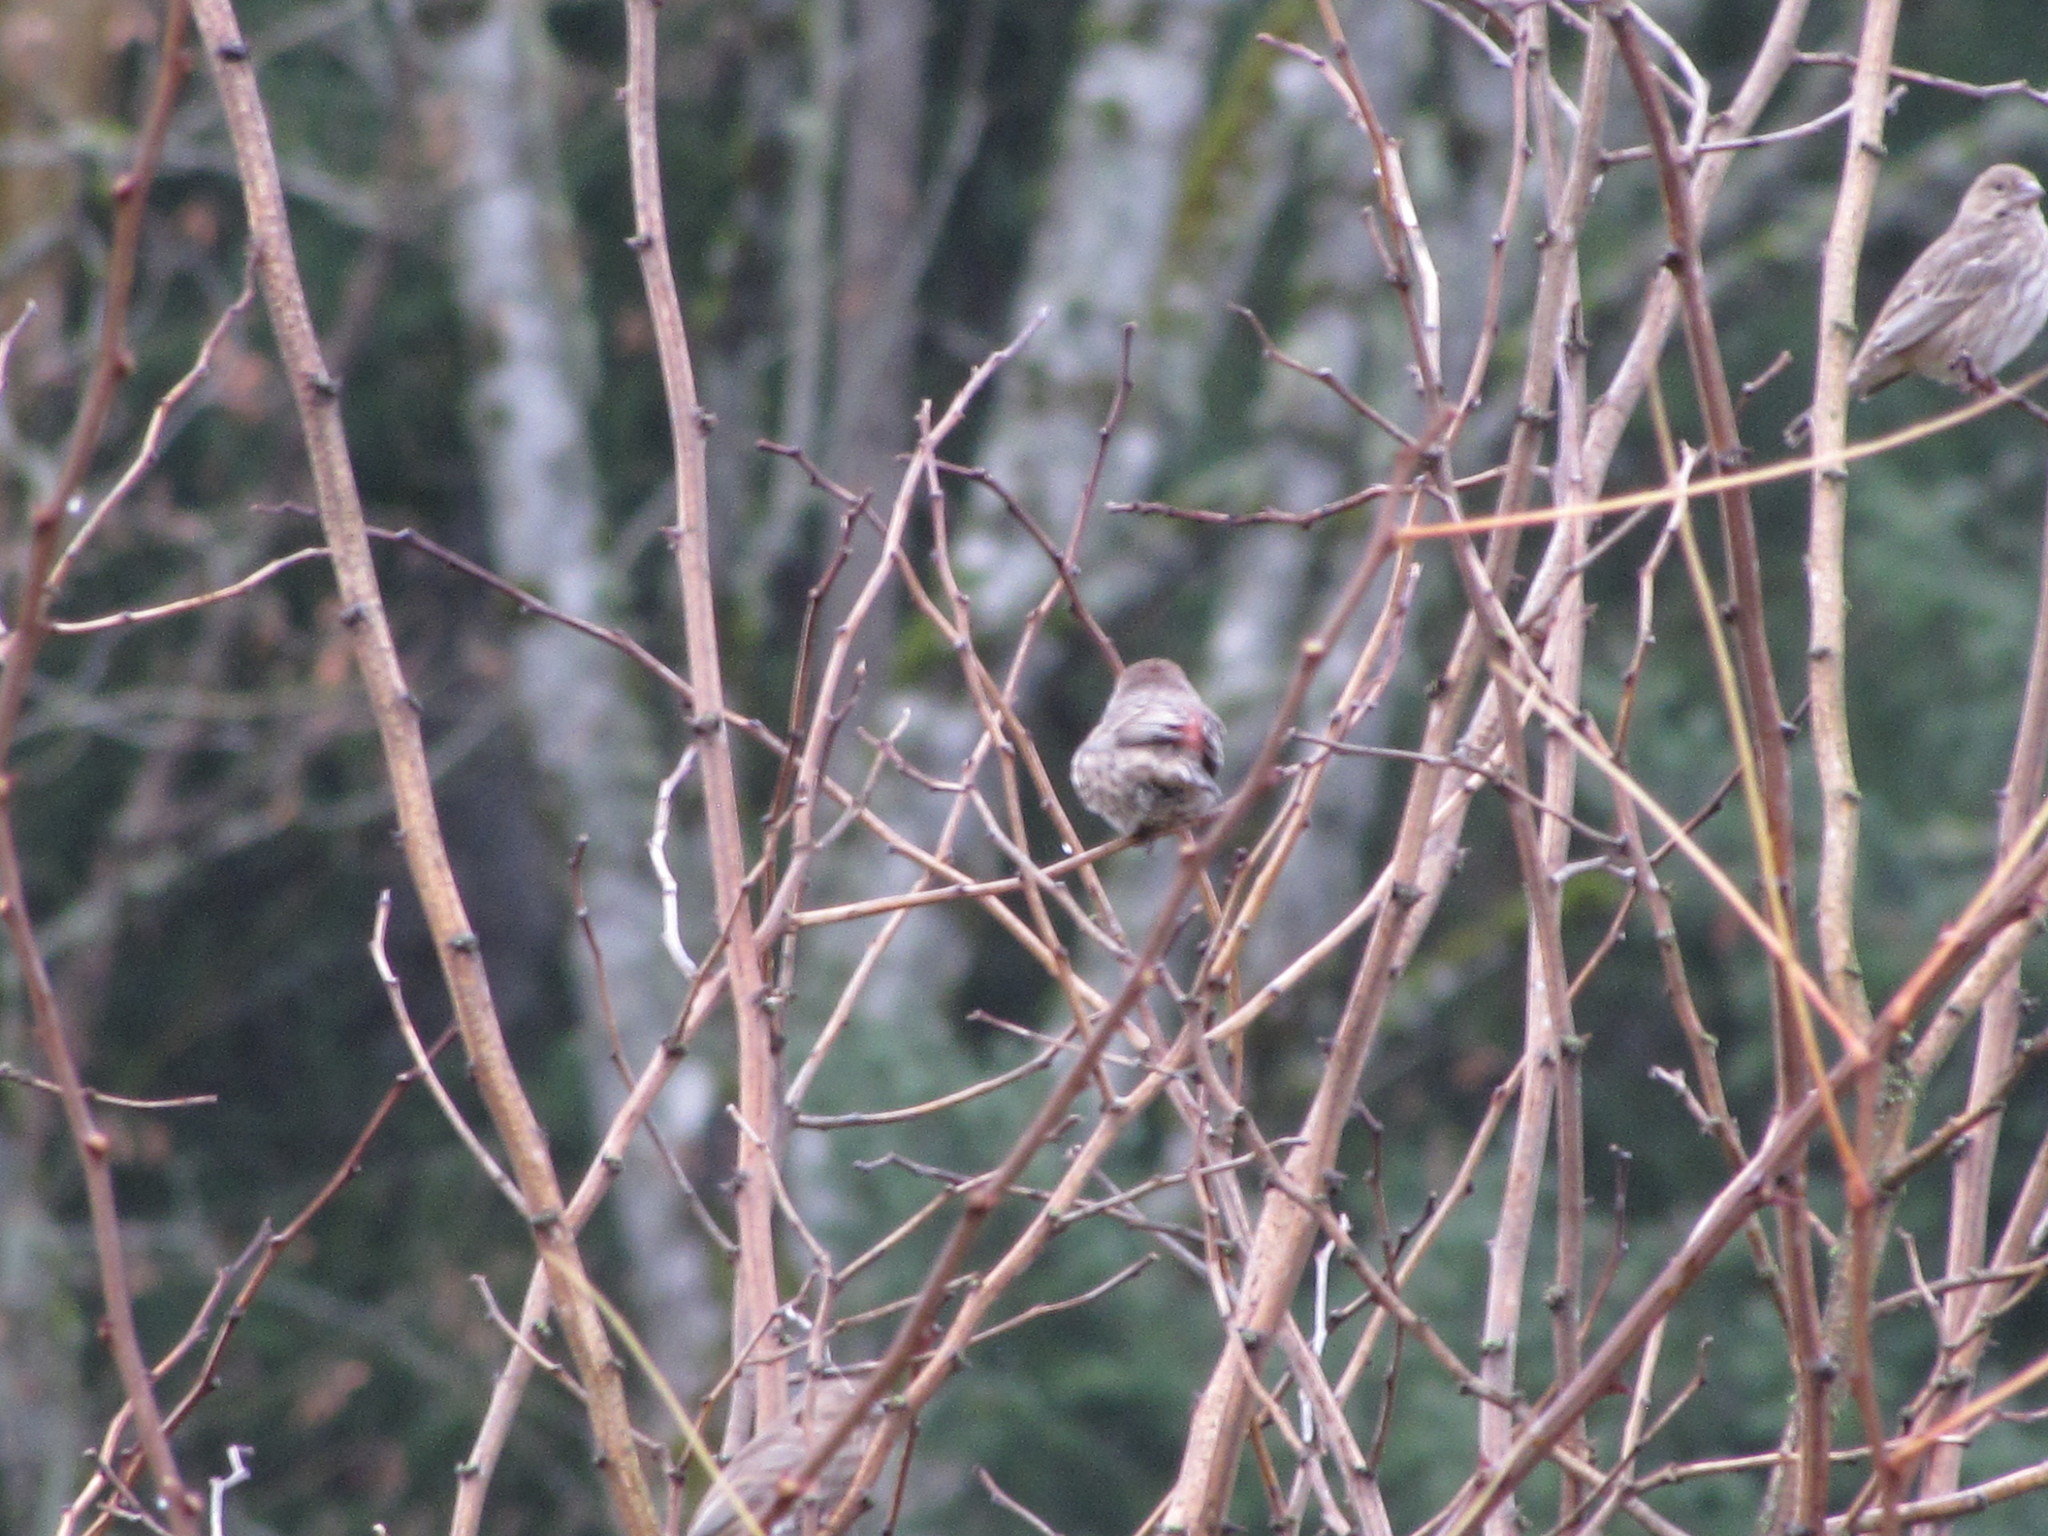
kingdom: Animalia
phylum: Chordata
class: Aves
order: Passeriformes
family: Fringillidae
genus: Haemorhous
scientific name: Haemorhous mexicanus
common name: House finch
